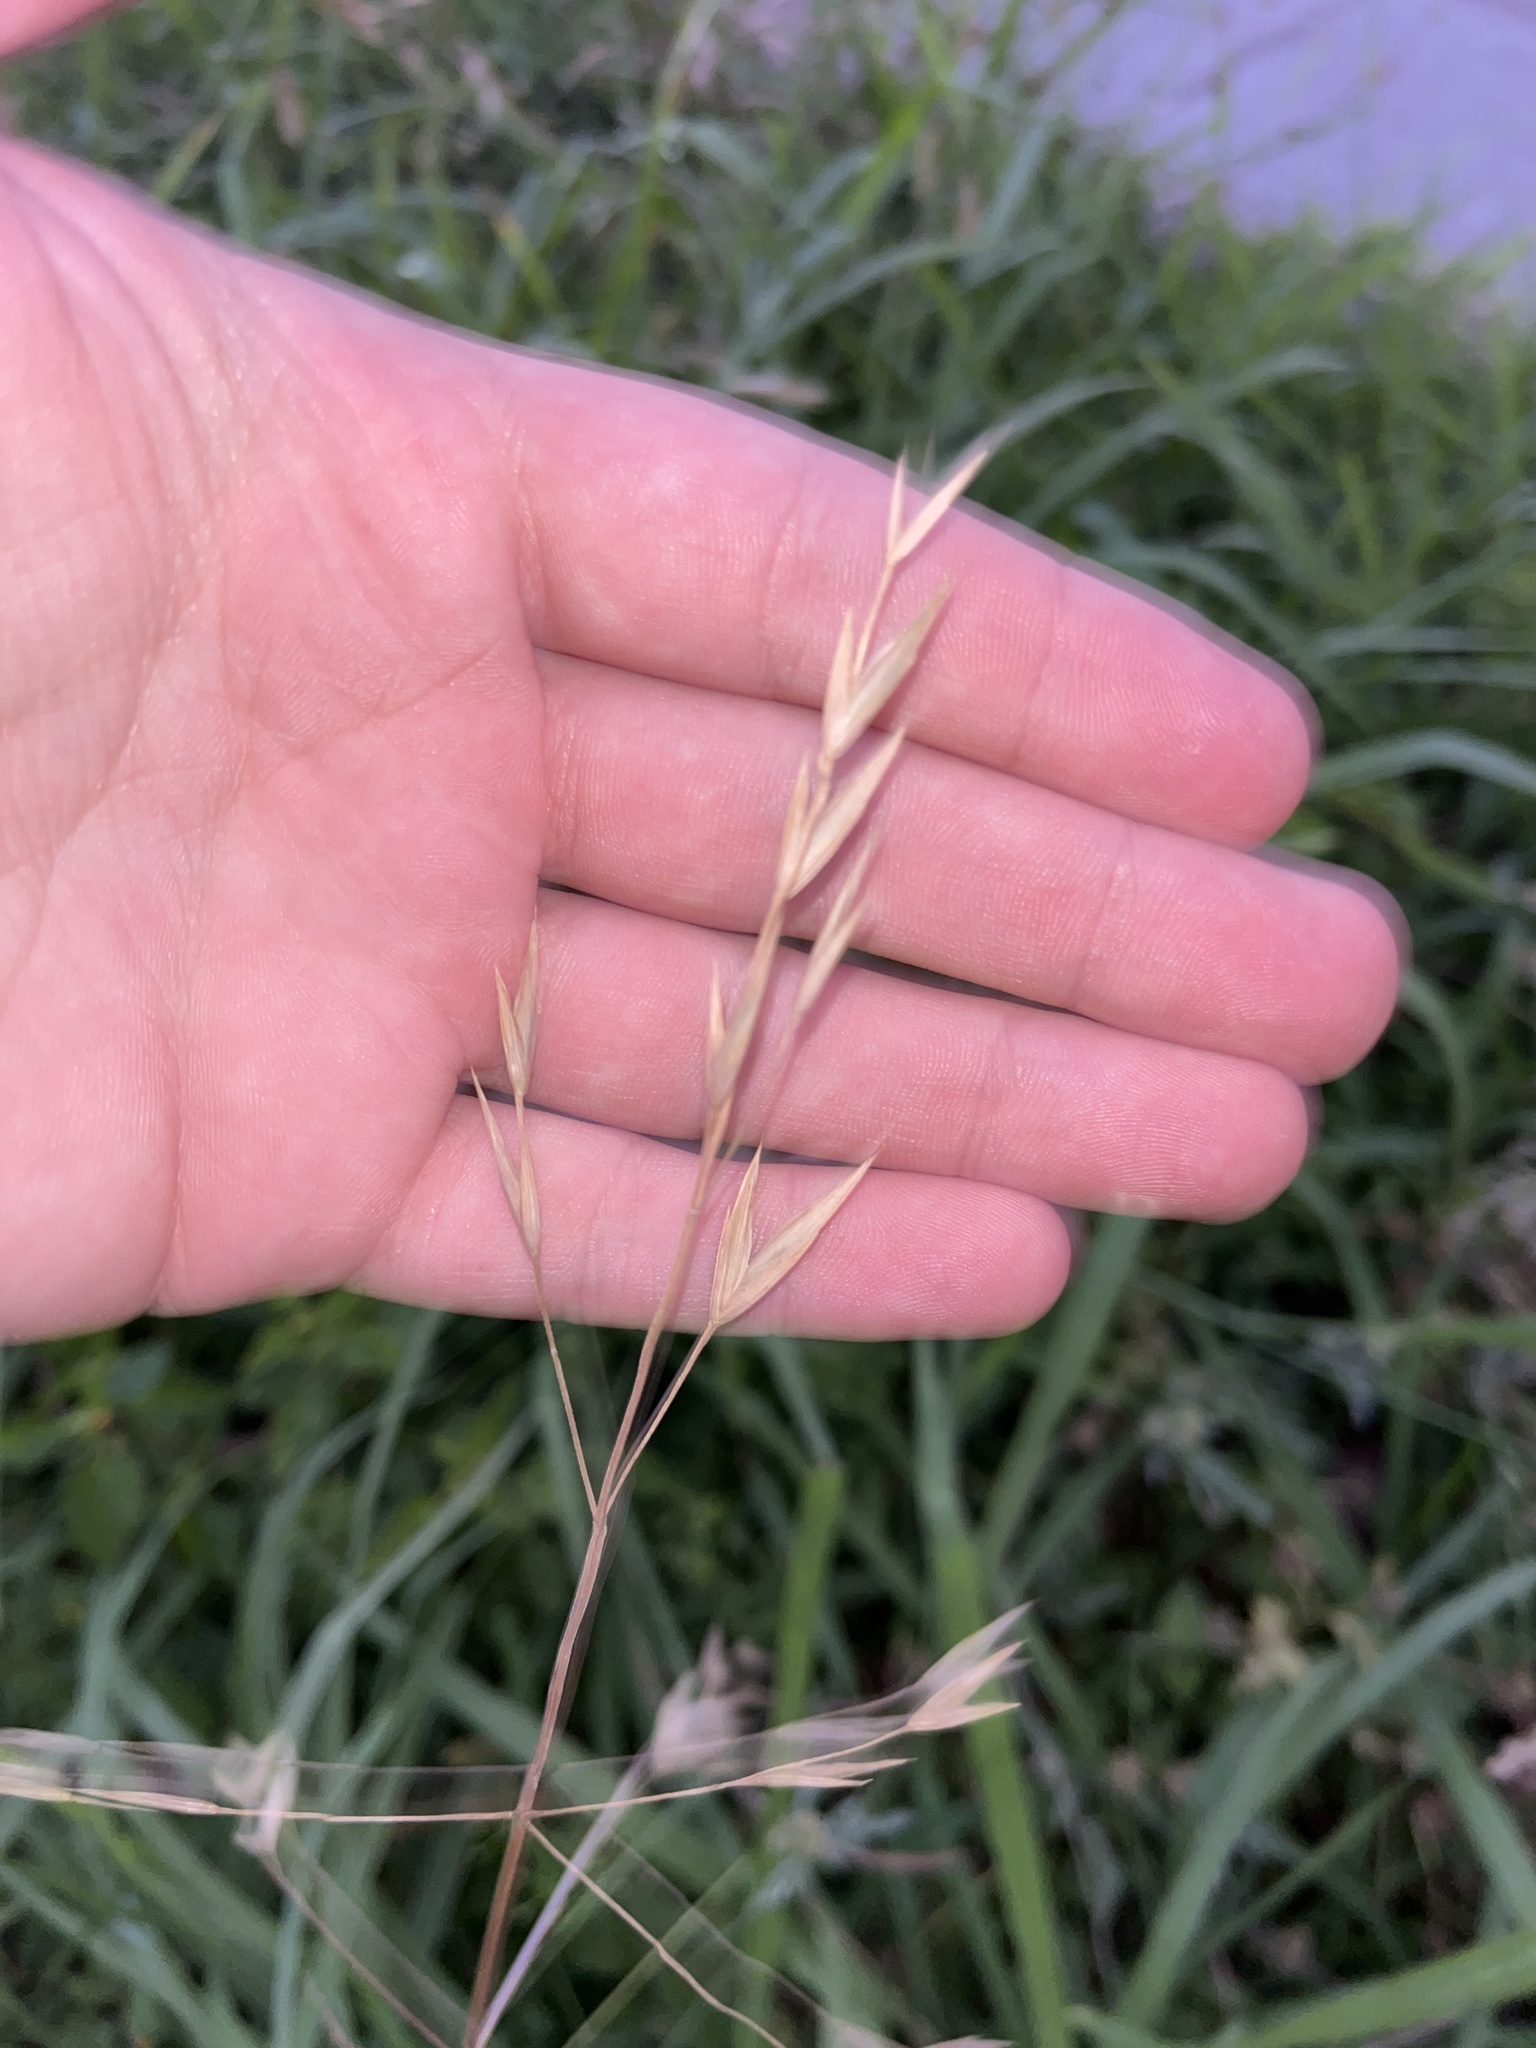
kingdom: Plantae
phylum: Tracheophyta
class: Liliopsida
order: Poales
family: Poaceae
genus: Bromus
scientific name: Bromus catharticus
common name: Rescuegrass
